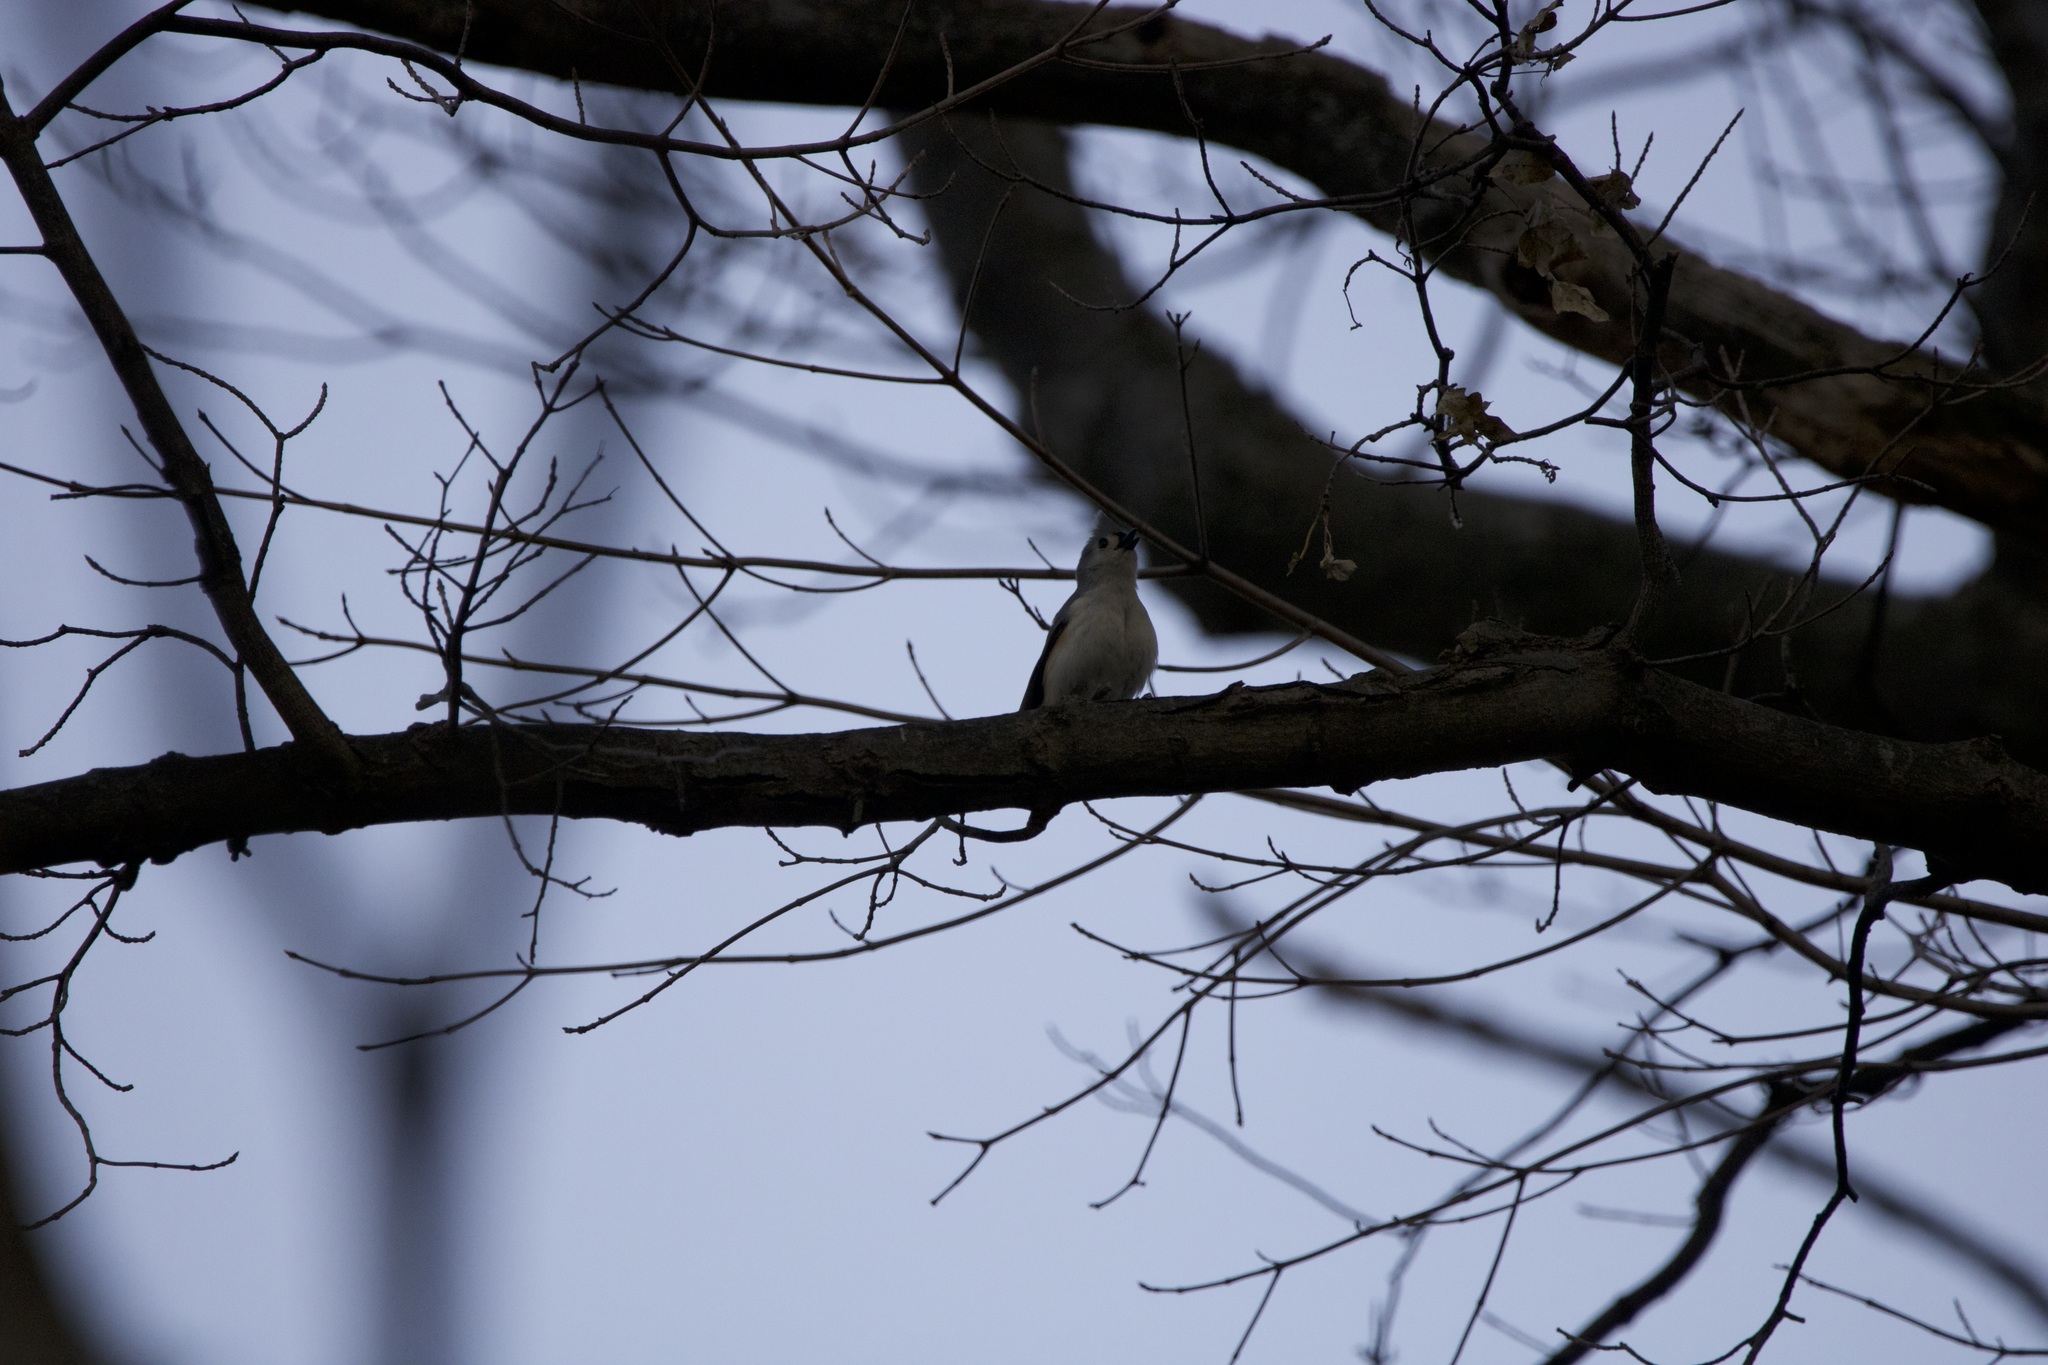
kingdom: Animalia
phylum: Chordata
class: Aves
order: Passeriformes
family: Paridae
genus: Baeolophus
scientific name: Baeolophus bicolor
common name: Tufted titmouse
